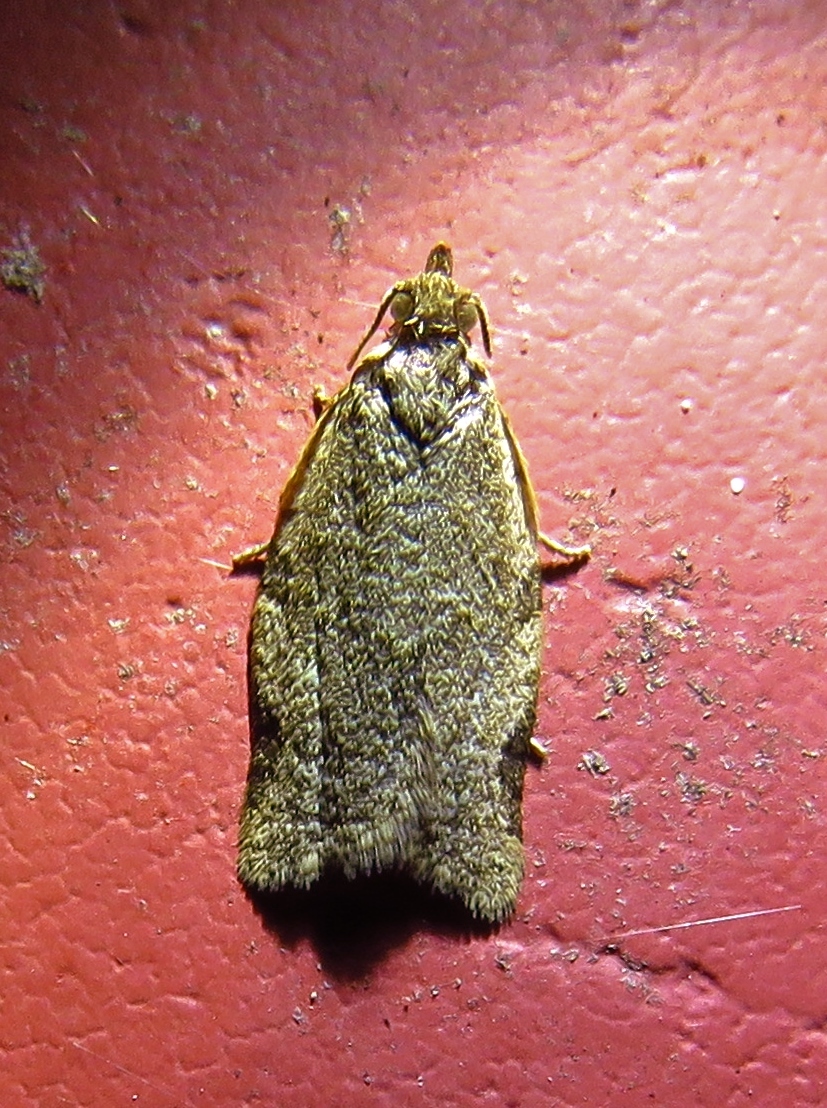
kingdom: Animalia
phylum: Arthropoda
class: Insecta
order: Lepidoptera
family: Tortricidae
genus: Clepsis
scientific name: Clepsis virescana
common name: Greenish apple moth
